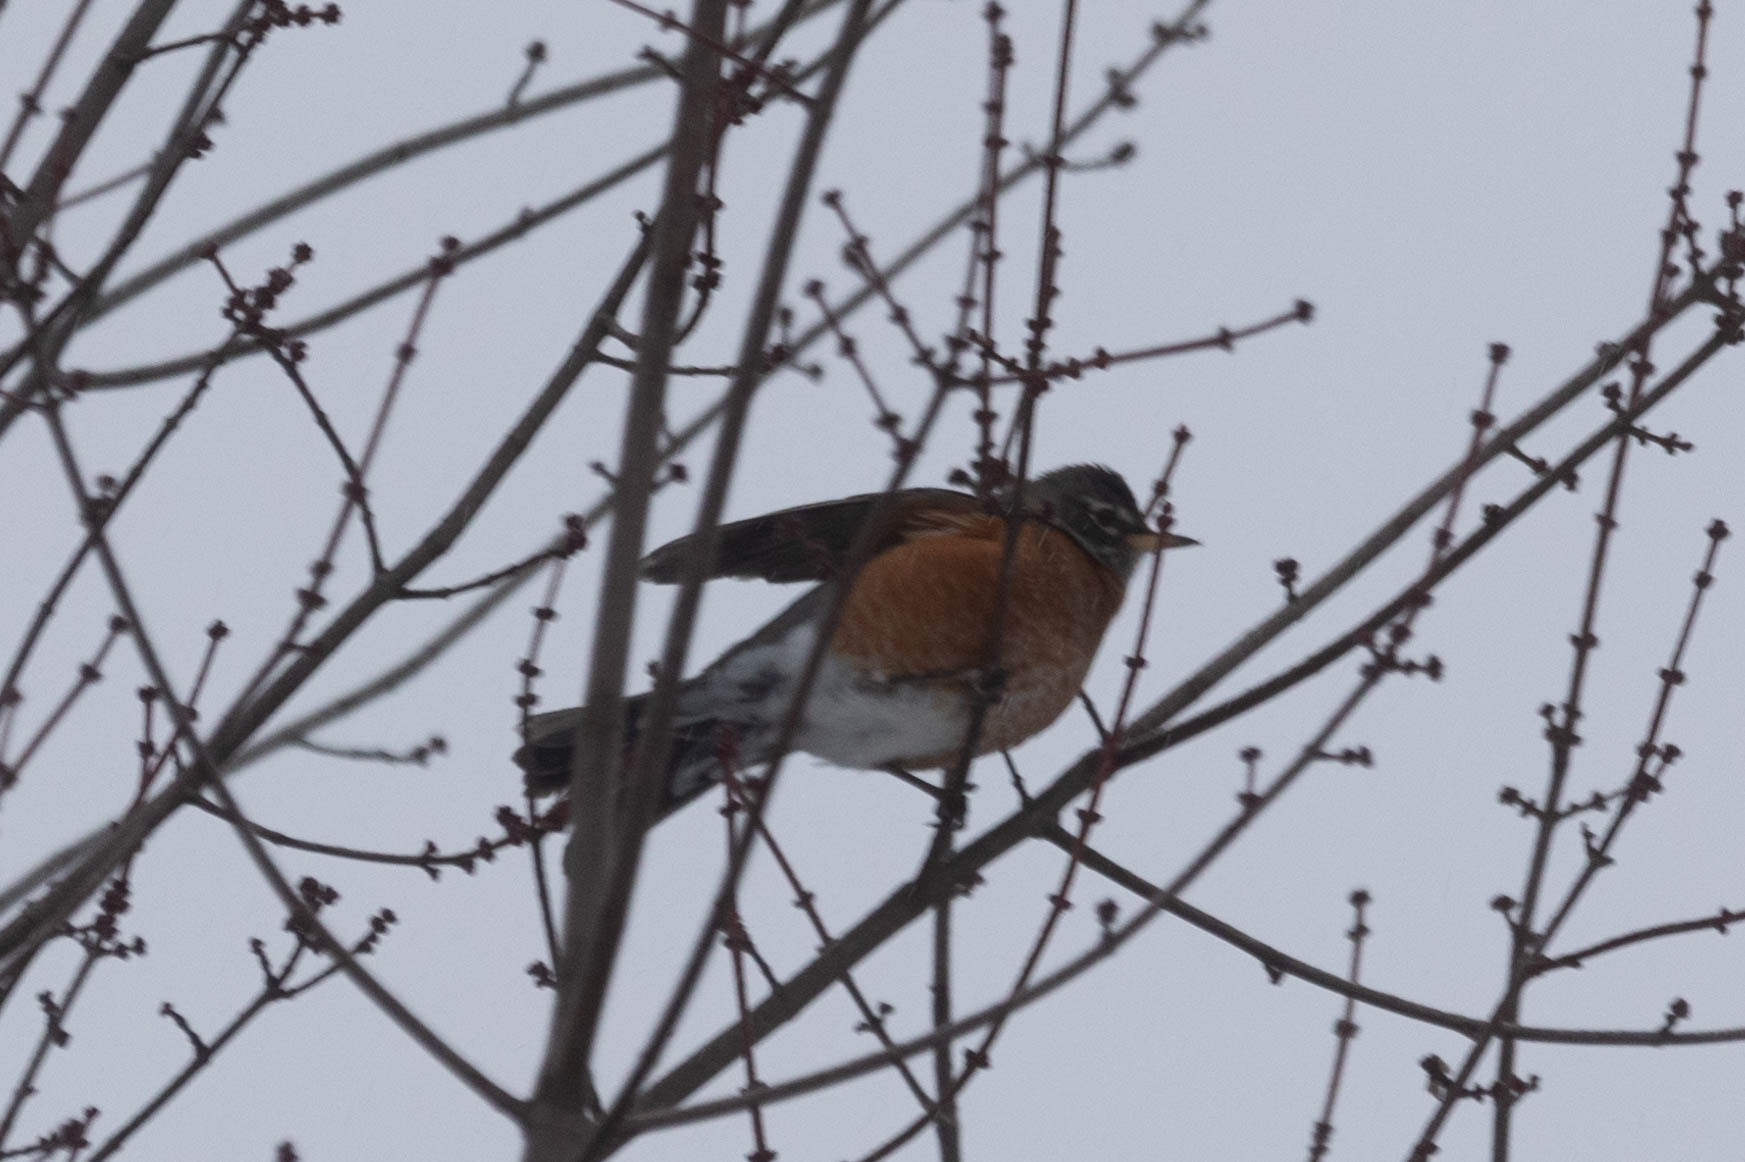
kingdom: Animalia
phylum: Chordata
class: Aves
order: Passeriformes
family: Turdidae
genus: Turdus
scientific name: Turdus migratorius
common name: American robin
